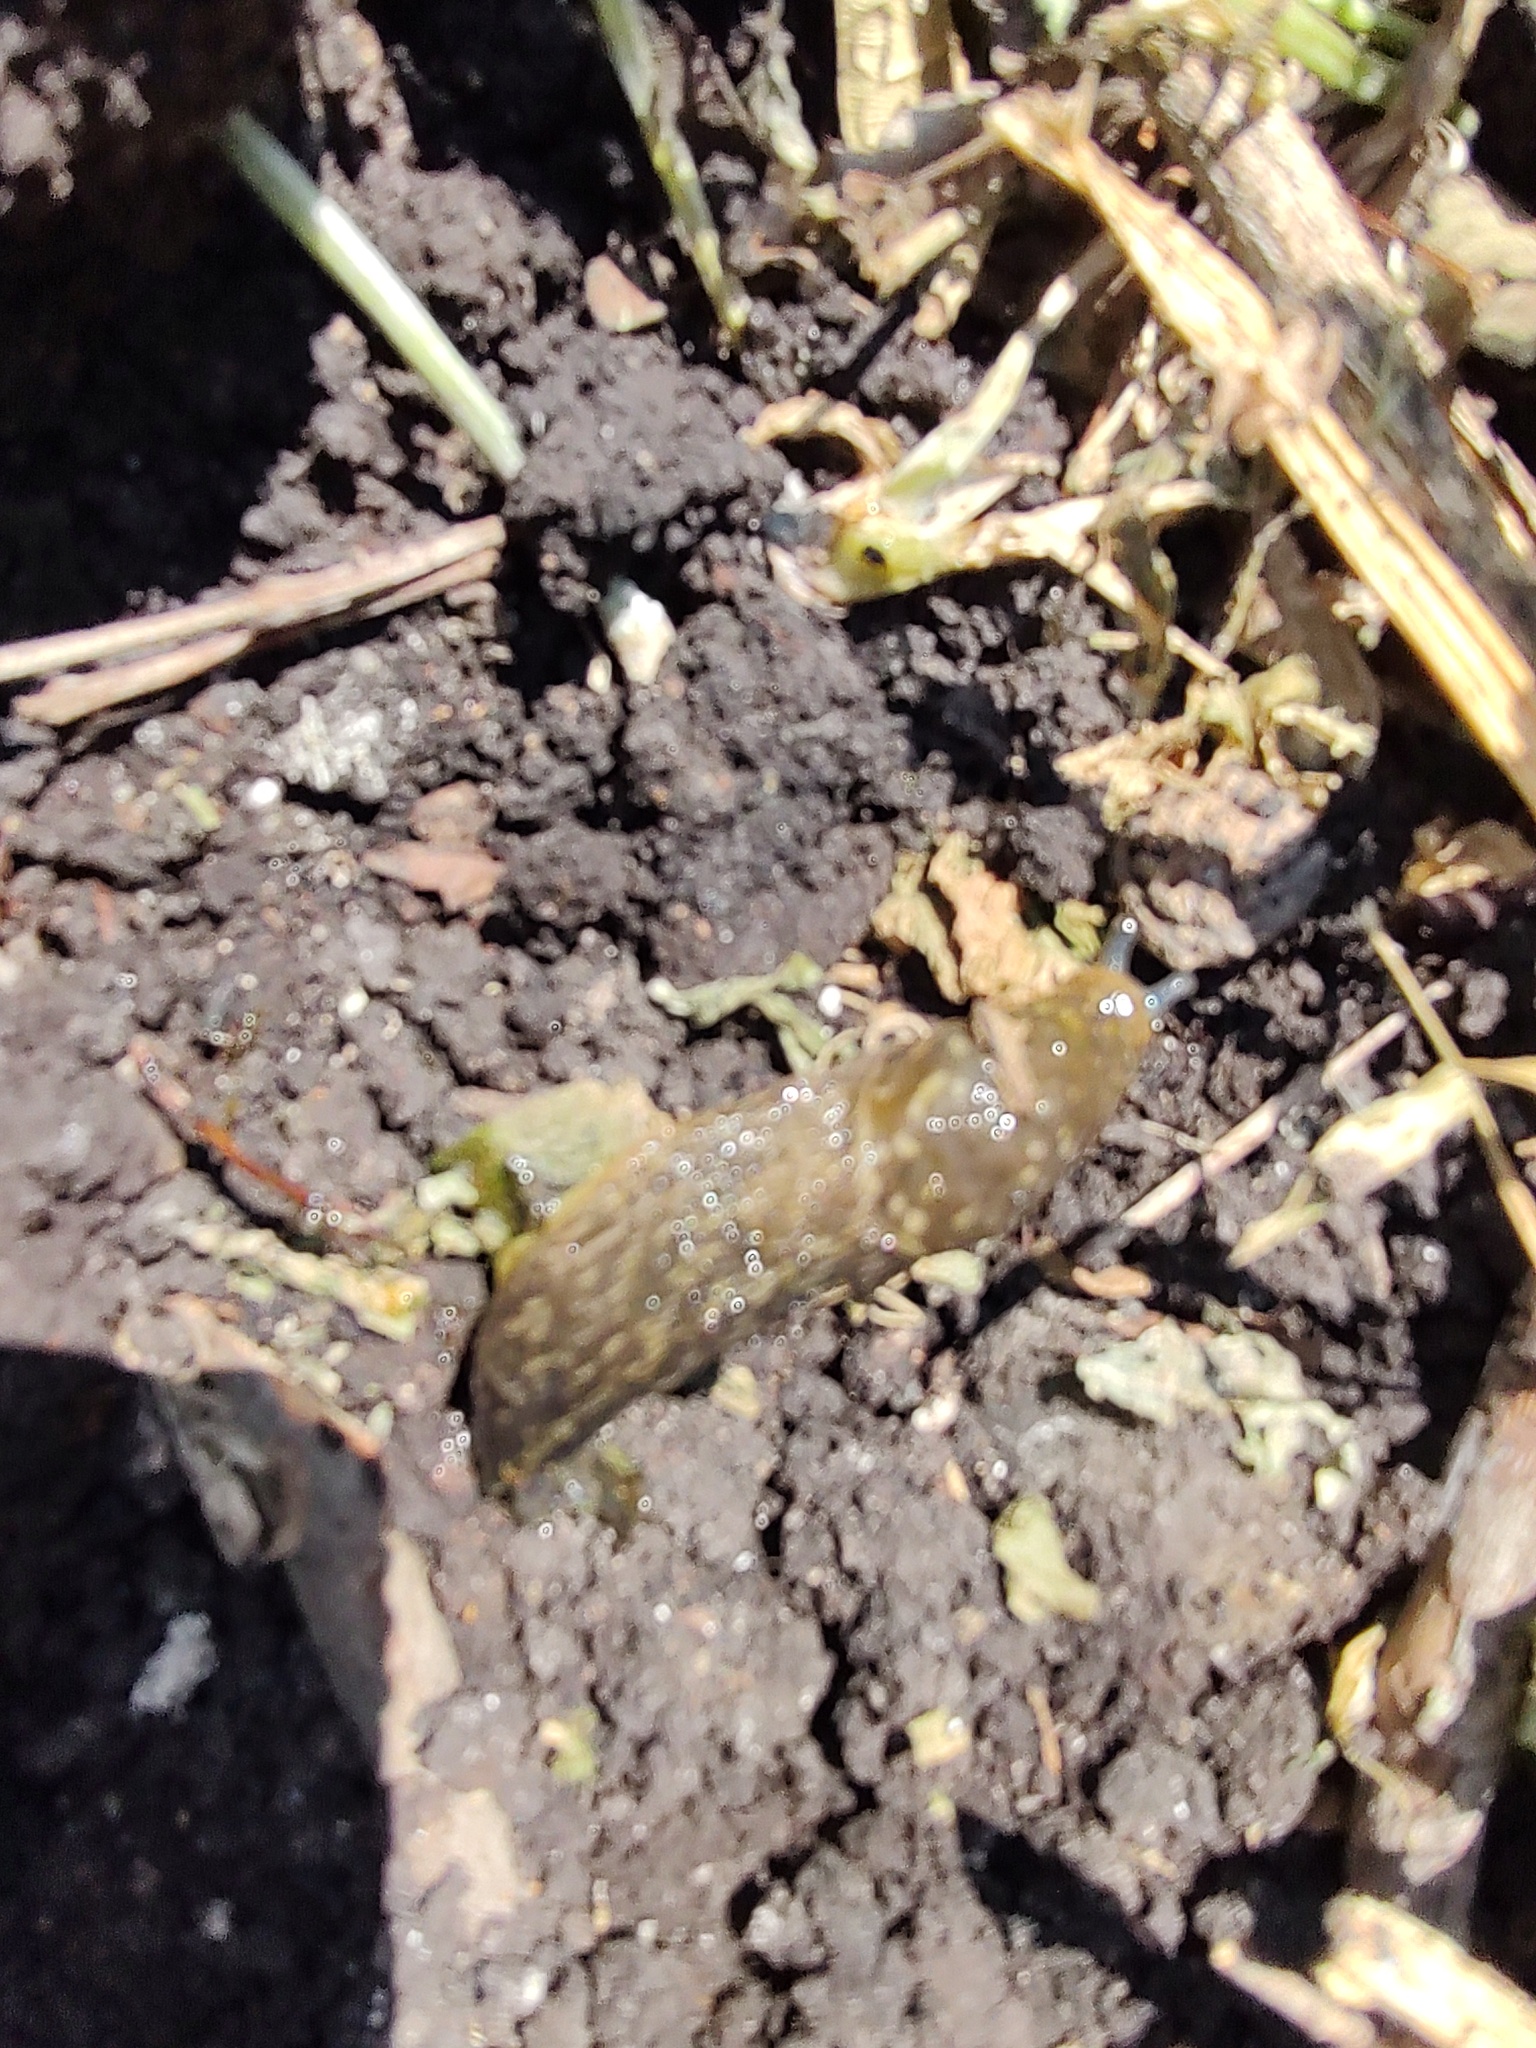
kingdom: Animalia
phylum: Mollusca
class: Gastropoda
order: Stylommatophora
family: Limacidae
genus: Limacus
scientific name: Limacus flavus
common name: Yellow gardenslug
